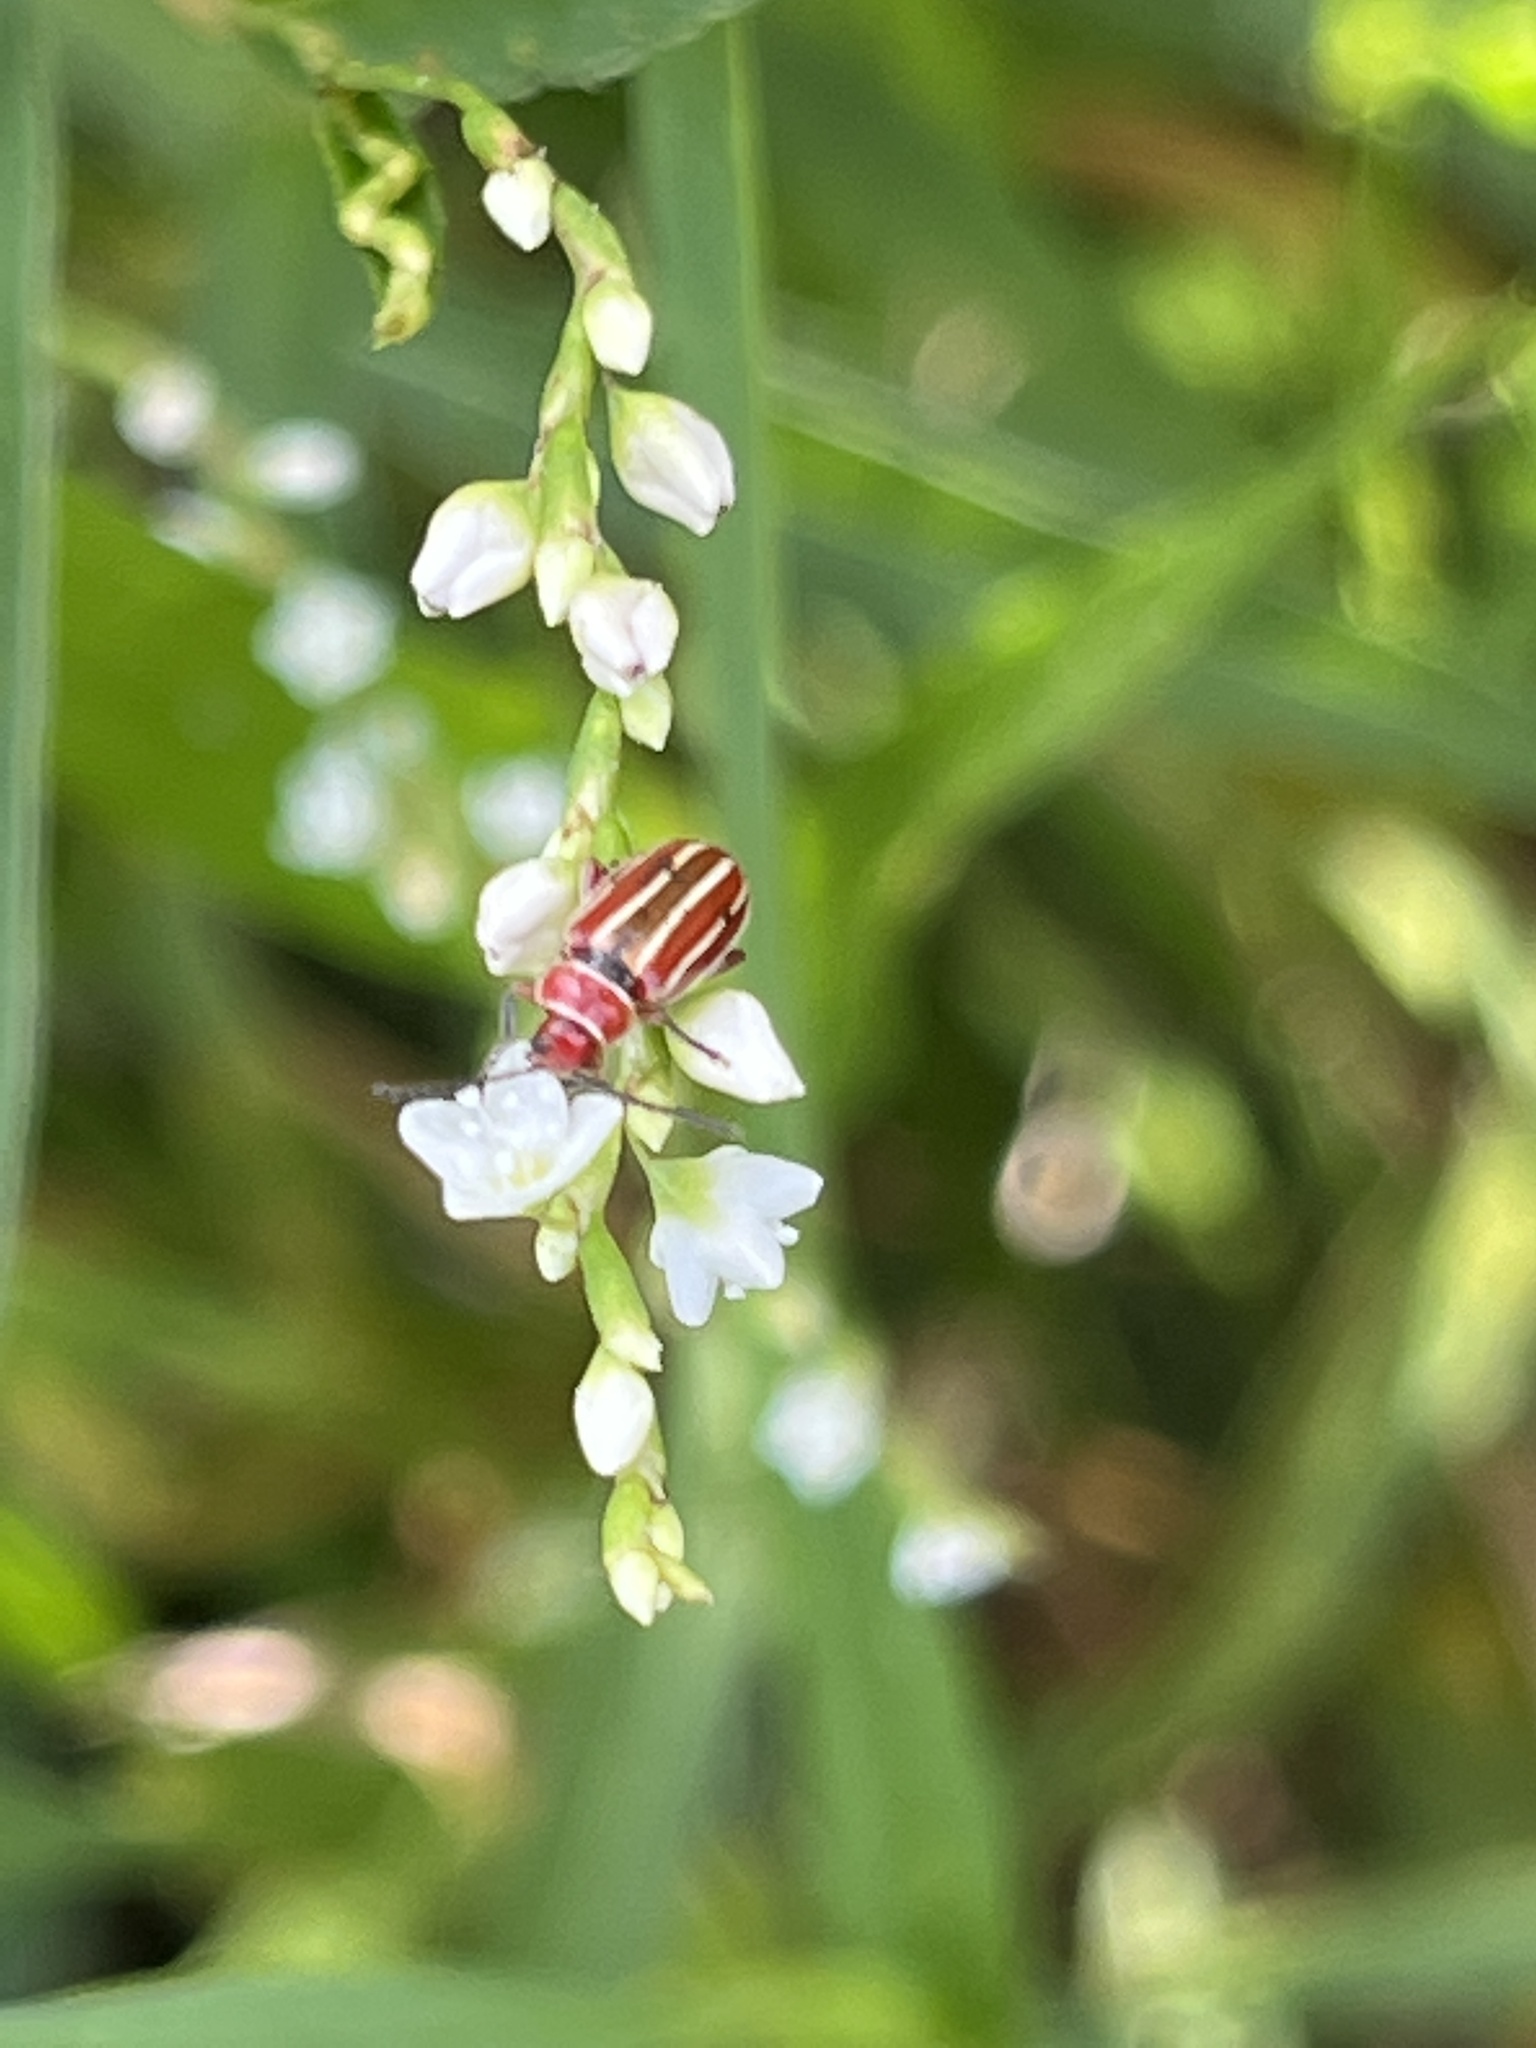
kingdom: Animalia
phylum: Arthropoda
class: Insecta
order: Coleoptera
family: Chrysomelidae
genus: Disonycha
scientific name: Disonycha conjugata
